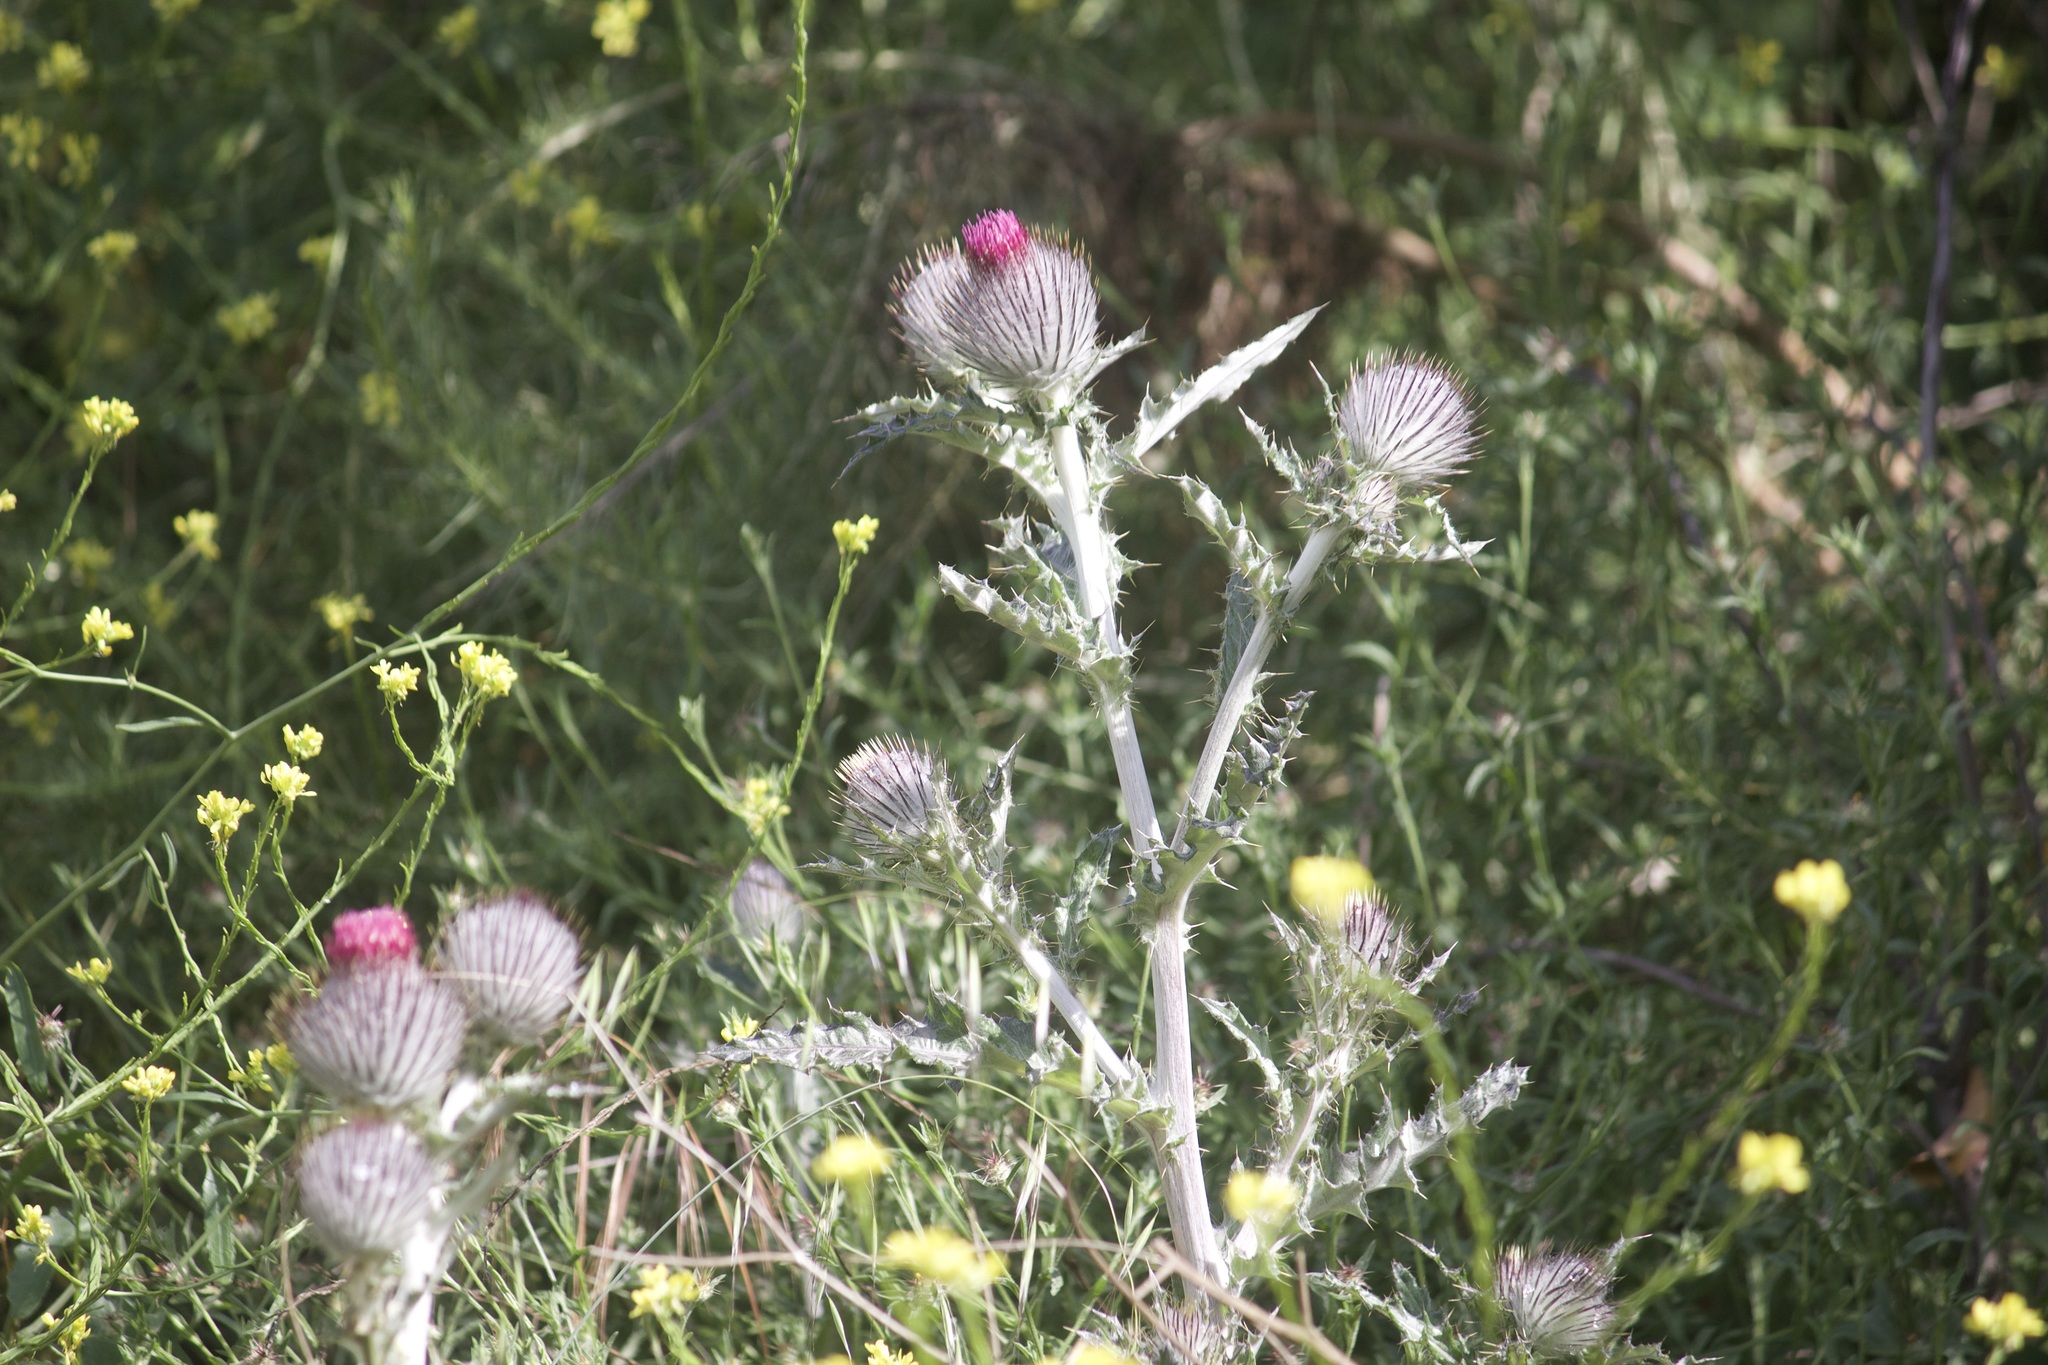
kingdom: Plantae
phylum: Tracheophyta
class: Magnoliopsida
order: Asterales
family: Asteraceae
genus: Cirsium
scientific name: Cirsium occidentale
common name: Western thistle
